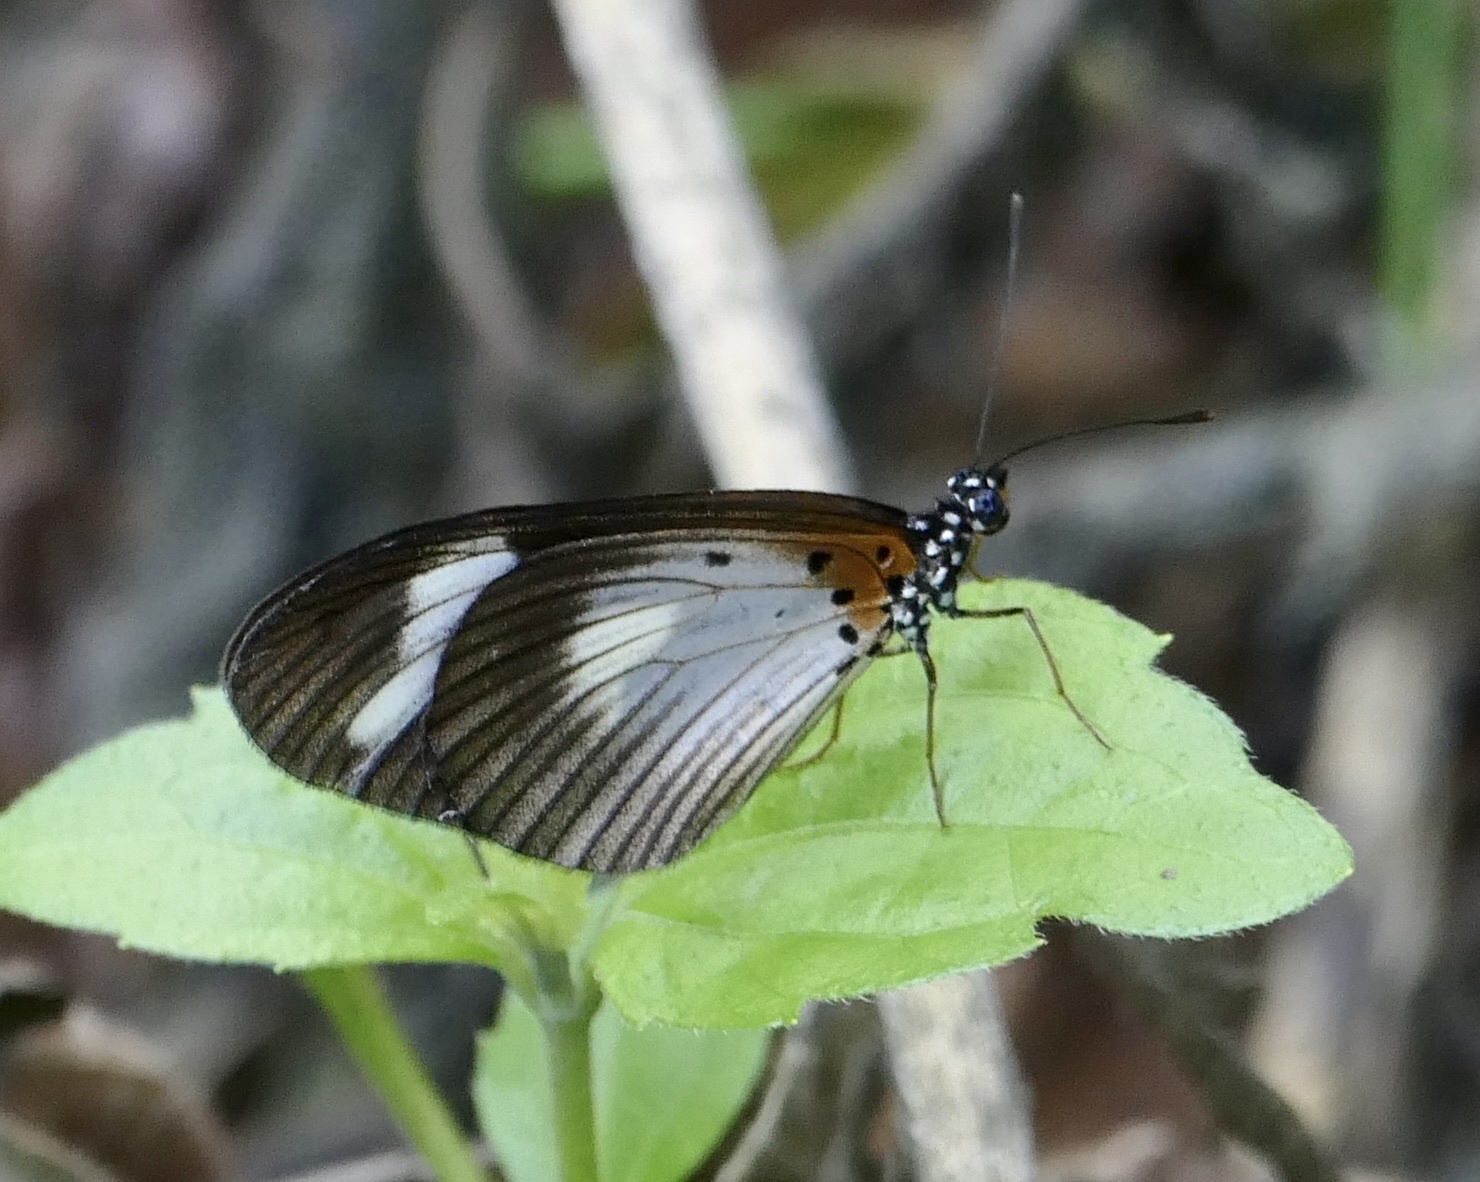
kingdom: Animalia
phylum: Arthropoda
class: Insecta
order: Lepidoptera
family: Nymphalidae
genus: Acraea
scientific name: Acraea Telchinia lycoa
